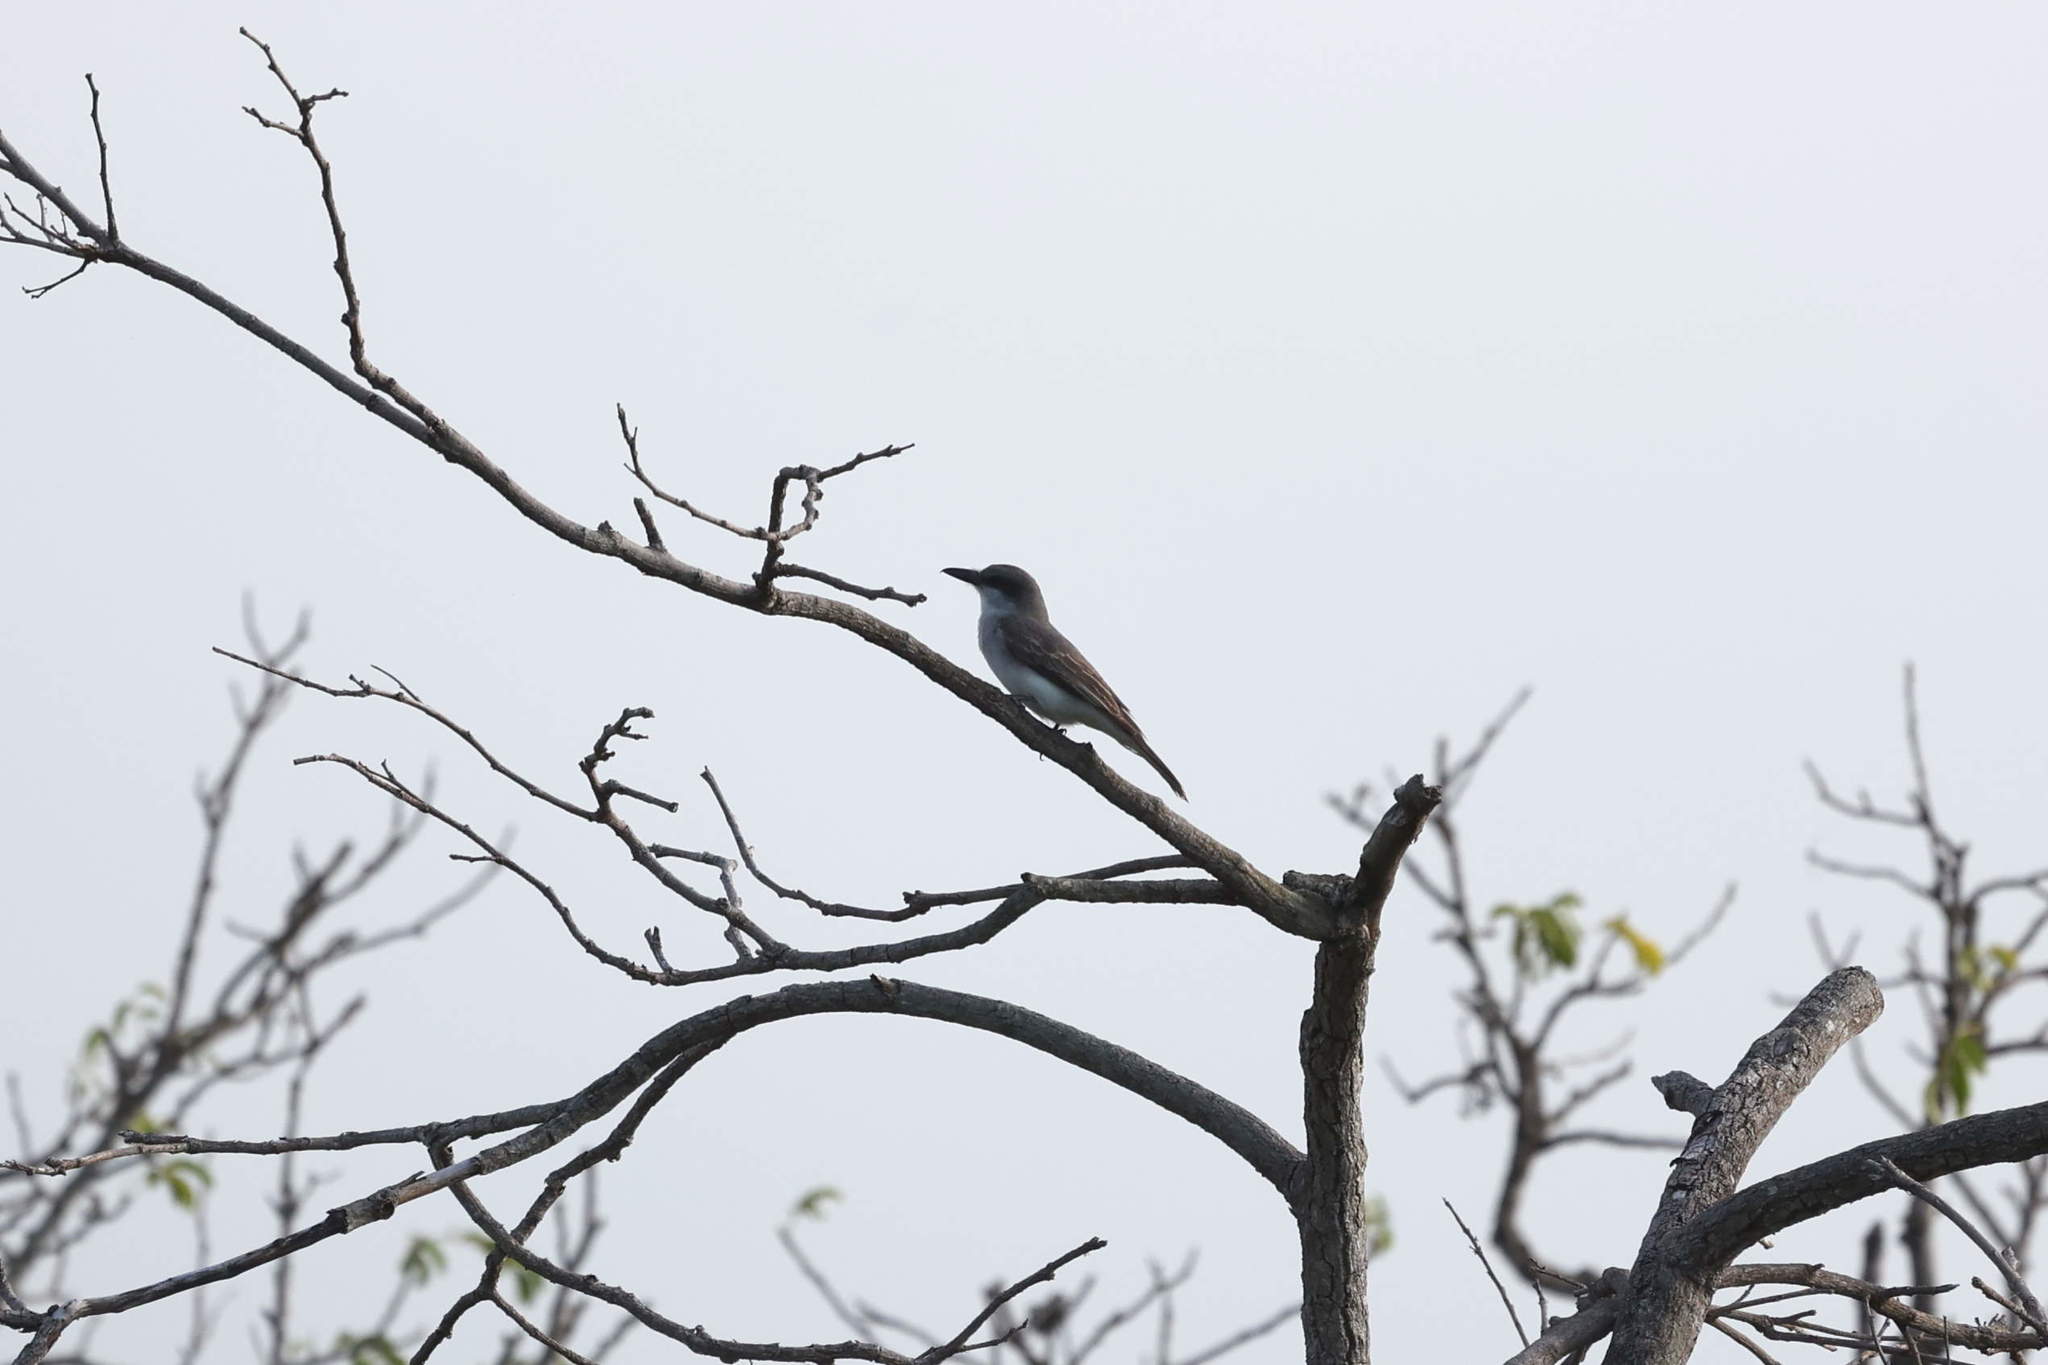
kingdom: Animalia
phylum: Chordata
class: Aves
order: Passeriformes
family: Tyrannidae
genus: Tyrannus
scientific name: Tyrannus dominicensis
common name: Gray kingbird
